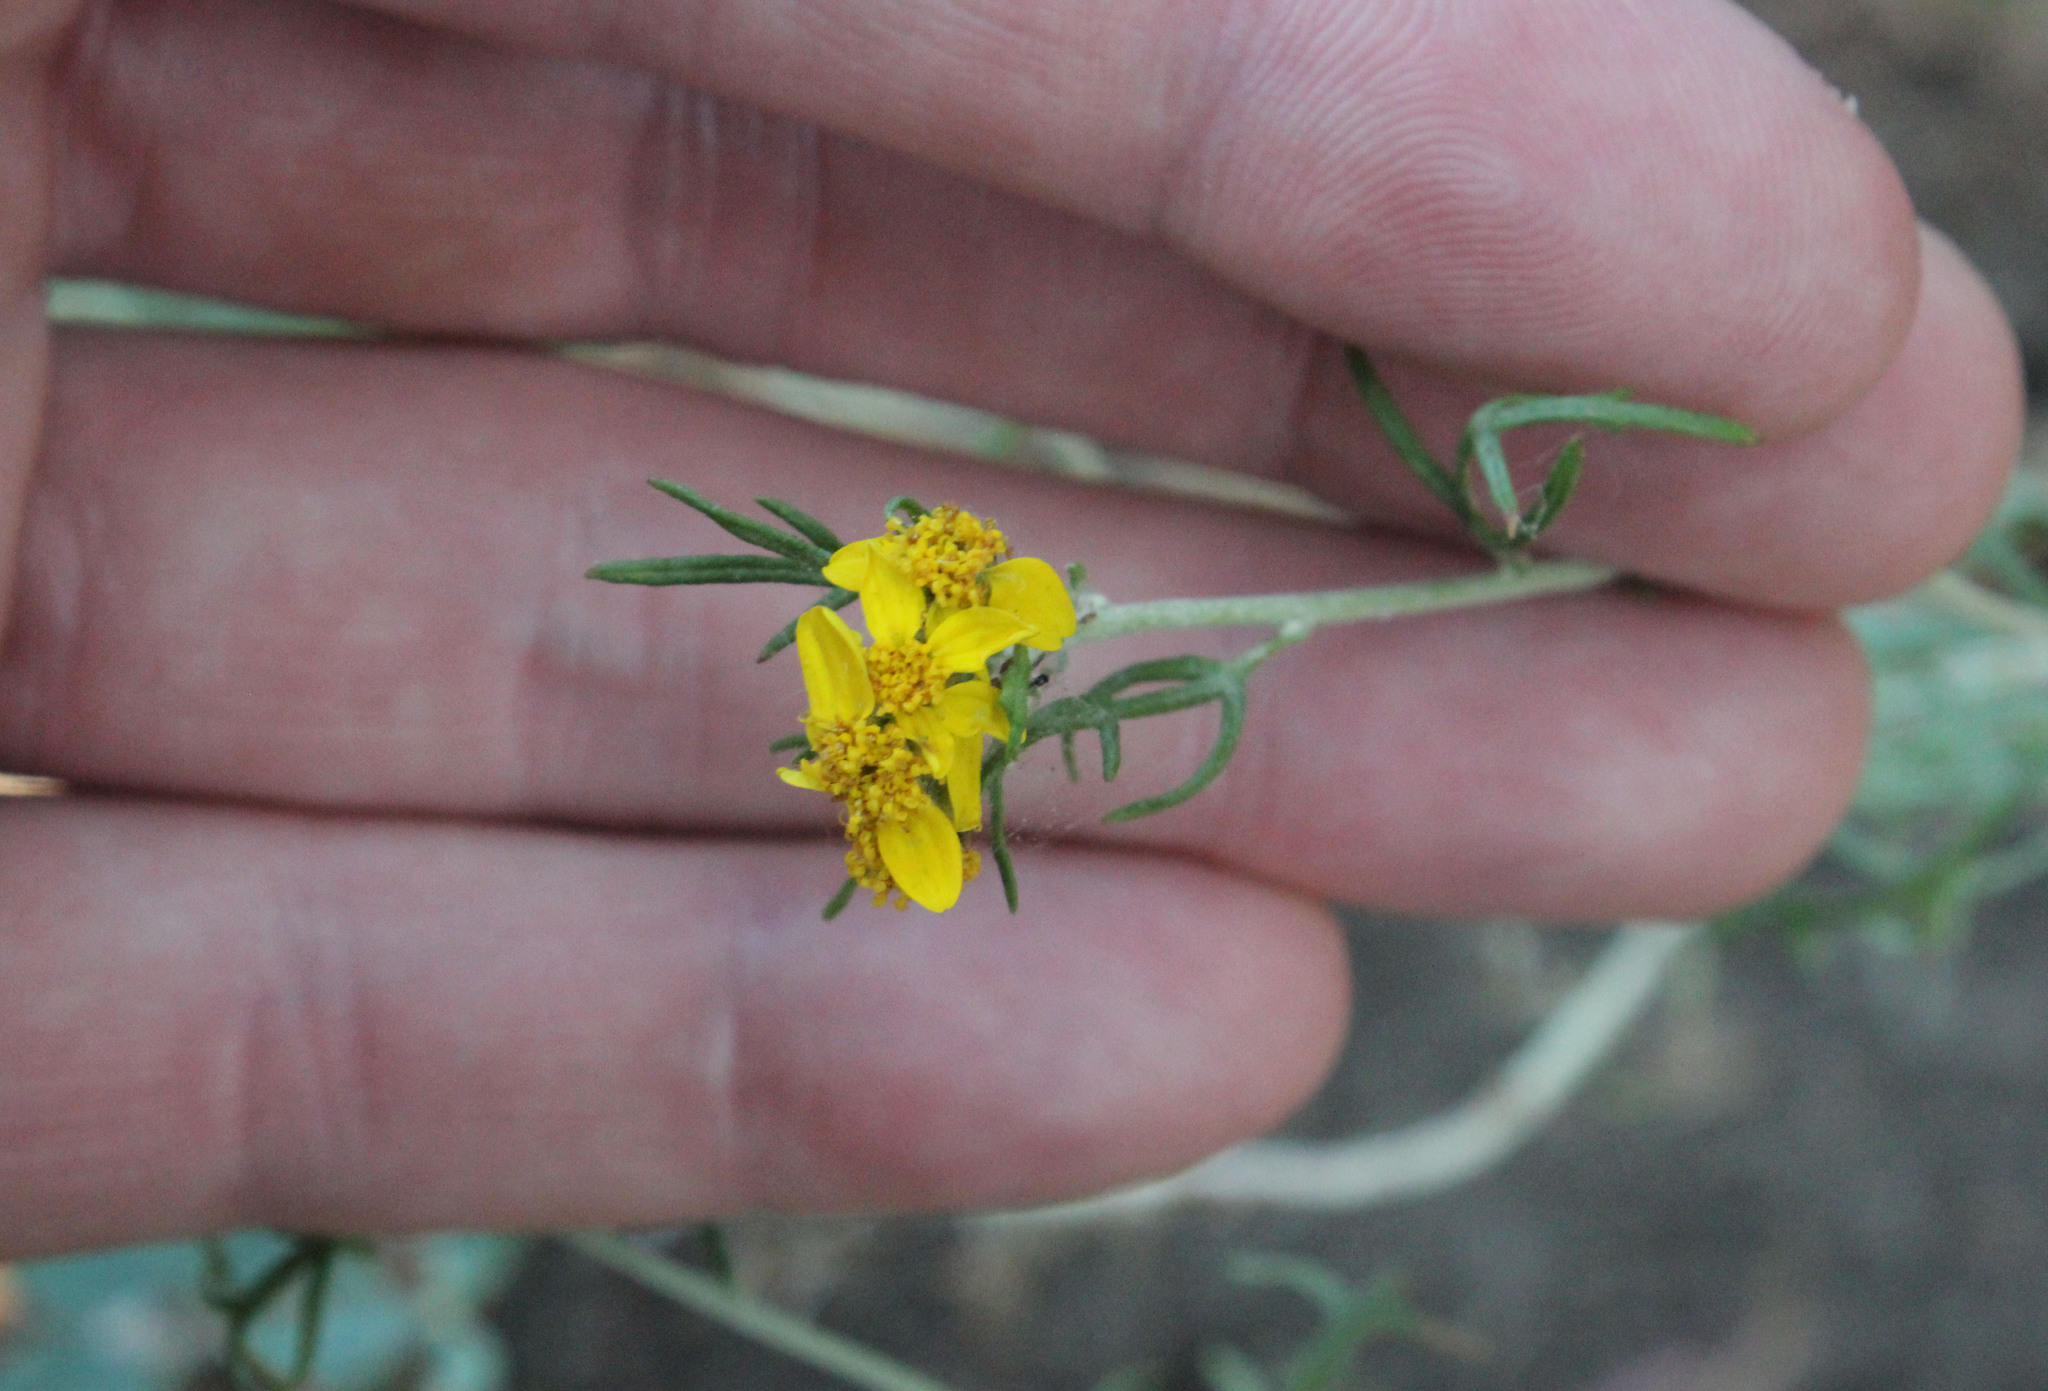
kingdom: Plantae
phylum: Tracheophyta
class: Magnoliopsida
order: Asterales
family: Asteraceae
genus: Eriophyllum
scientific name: Eriophyllum confertiflorum
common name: Golden-yarrow
